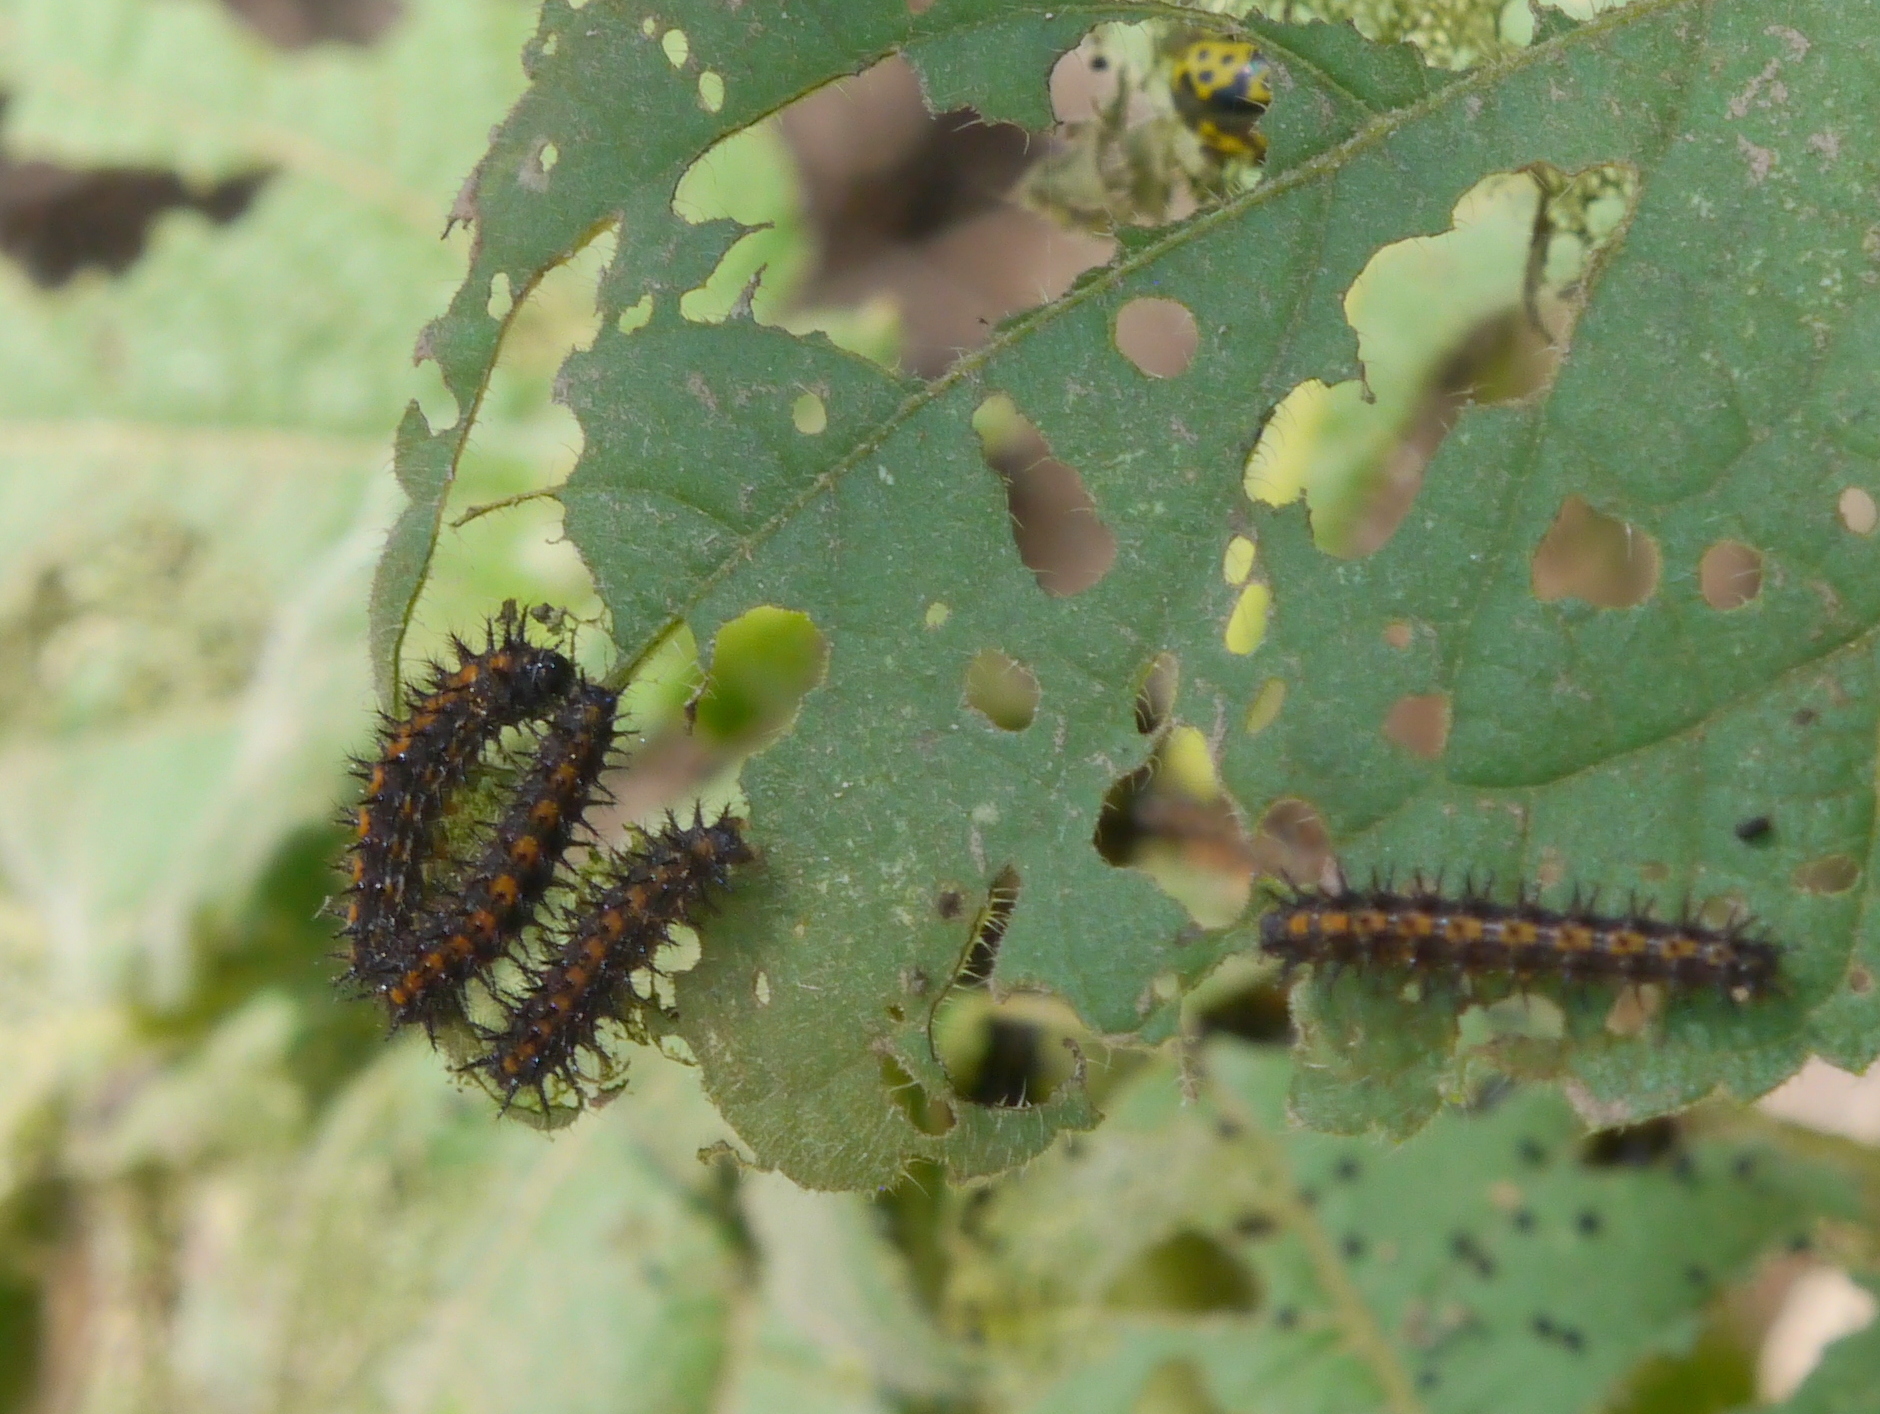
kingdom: Animalia
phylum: Arthropoda
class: Insecta
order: Lepidoptera
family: Nymphalidae
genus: Chlosyne
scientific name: Chlosyne lacinia
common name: Bordered patch
